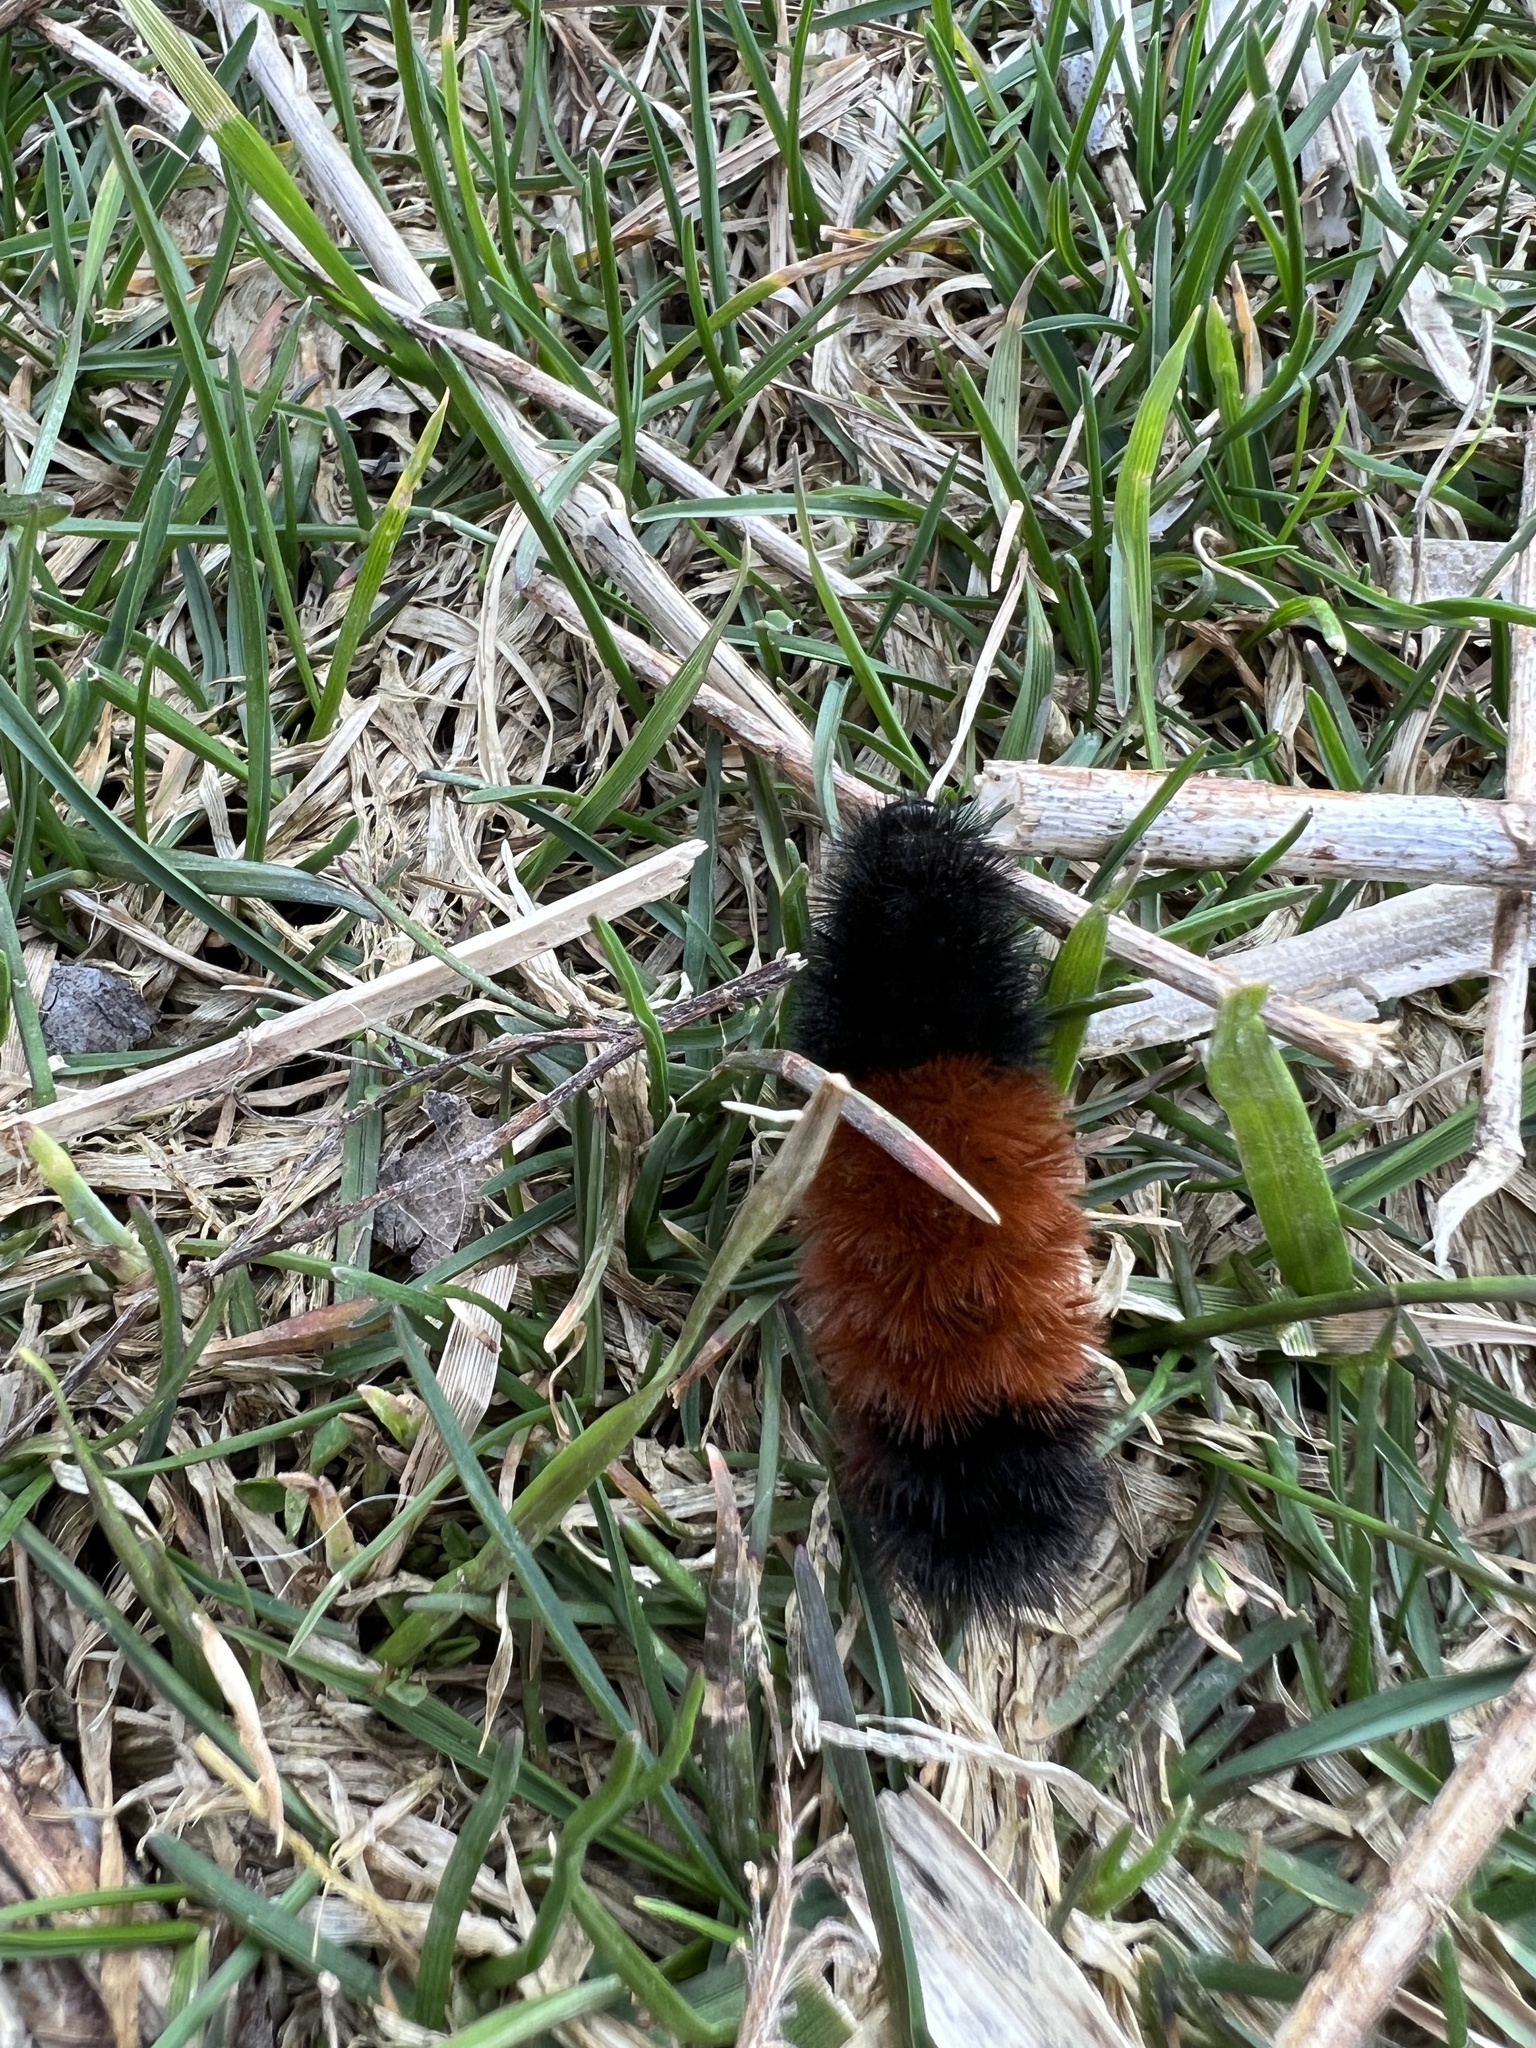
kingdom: Animalia
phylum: Arthropoda
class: Insecta
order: Lepidoptera
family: Erebidae
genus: Pyrrharctia
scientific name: Pyrrharctia isabella
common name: Isabella tiger moth
